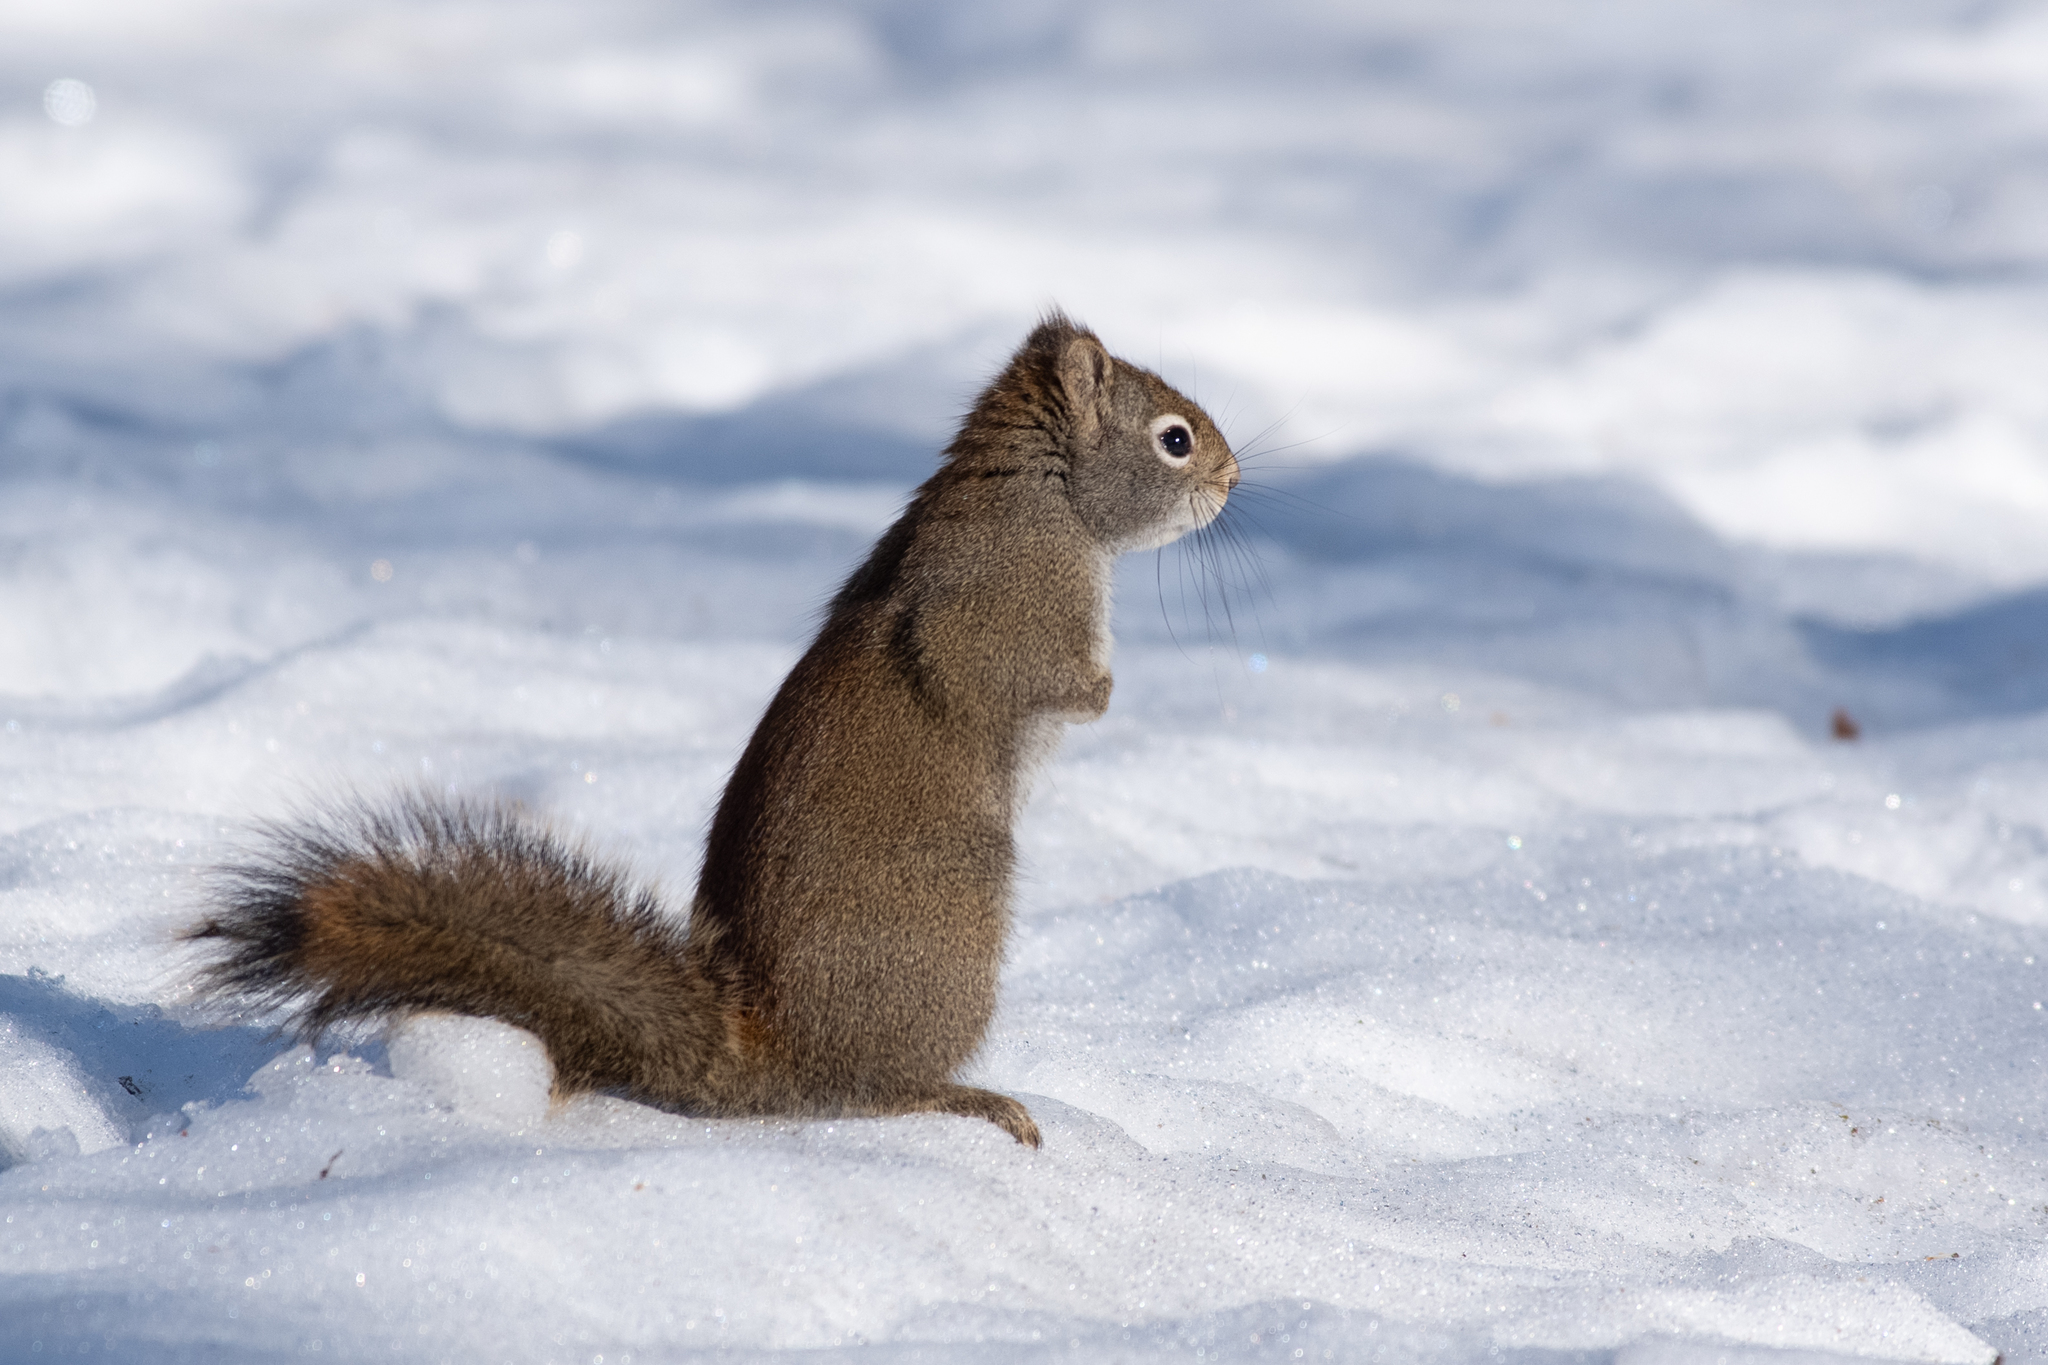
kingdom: Animalia
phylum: Chordata
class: Mammalia
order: Rodentia
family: Sciuridae
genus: Tamiasciurus
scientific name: Tamiasciurus hudsonicus
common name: Red squirrel
